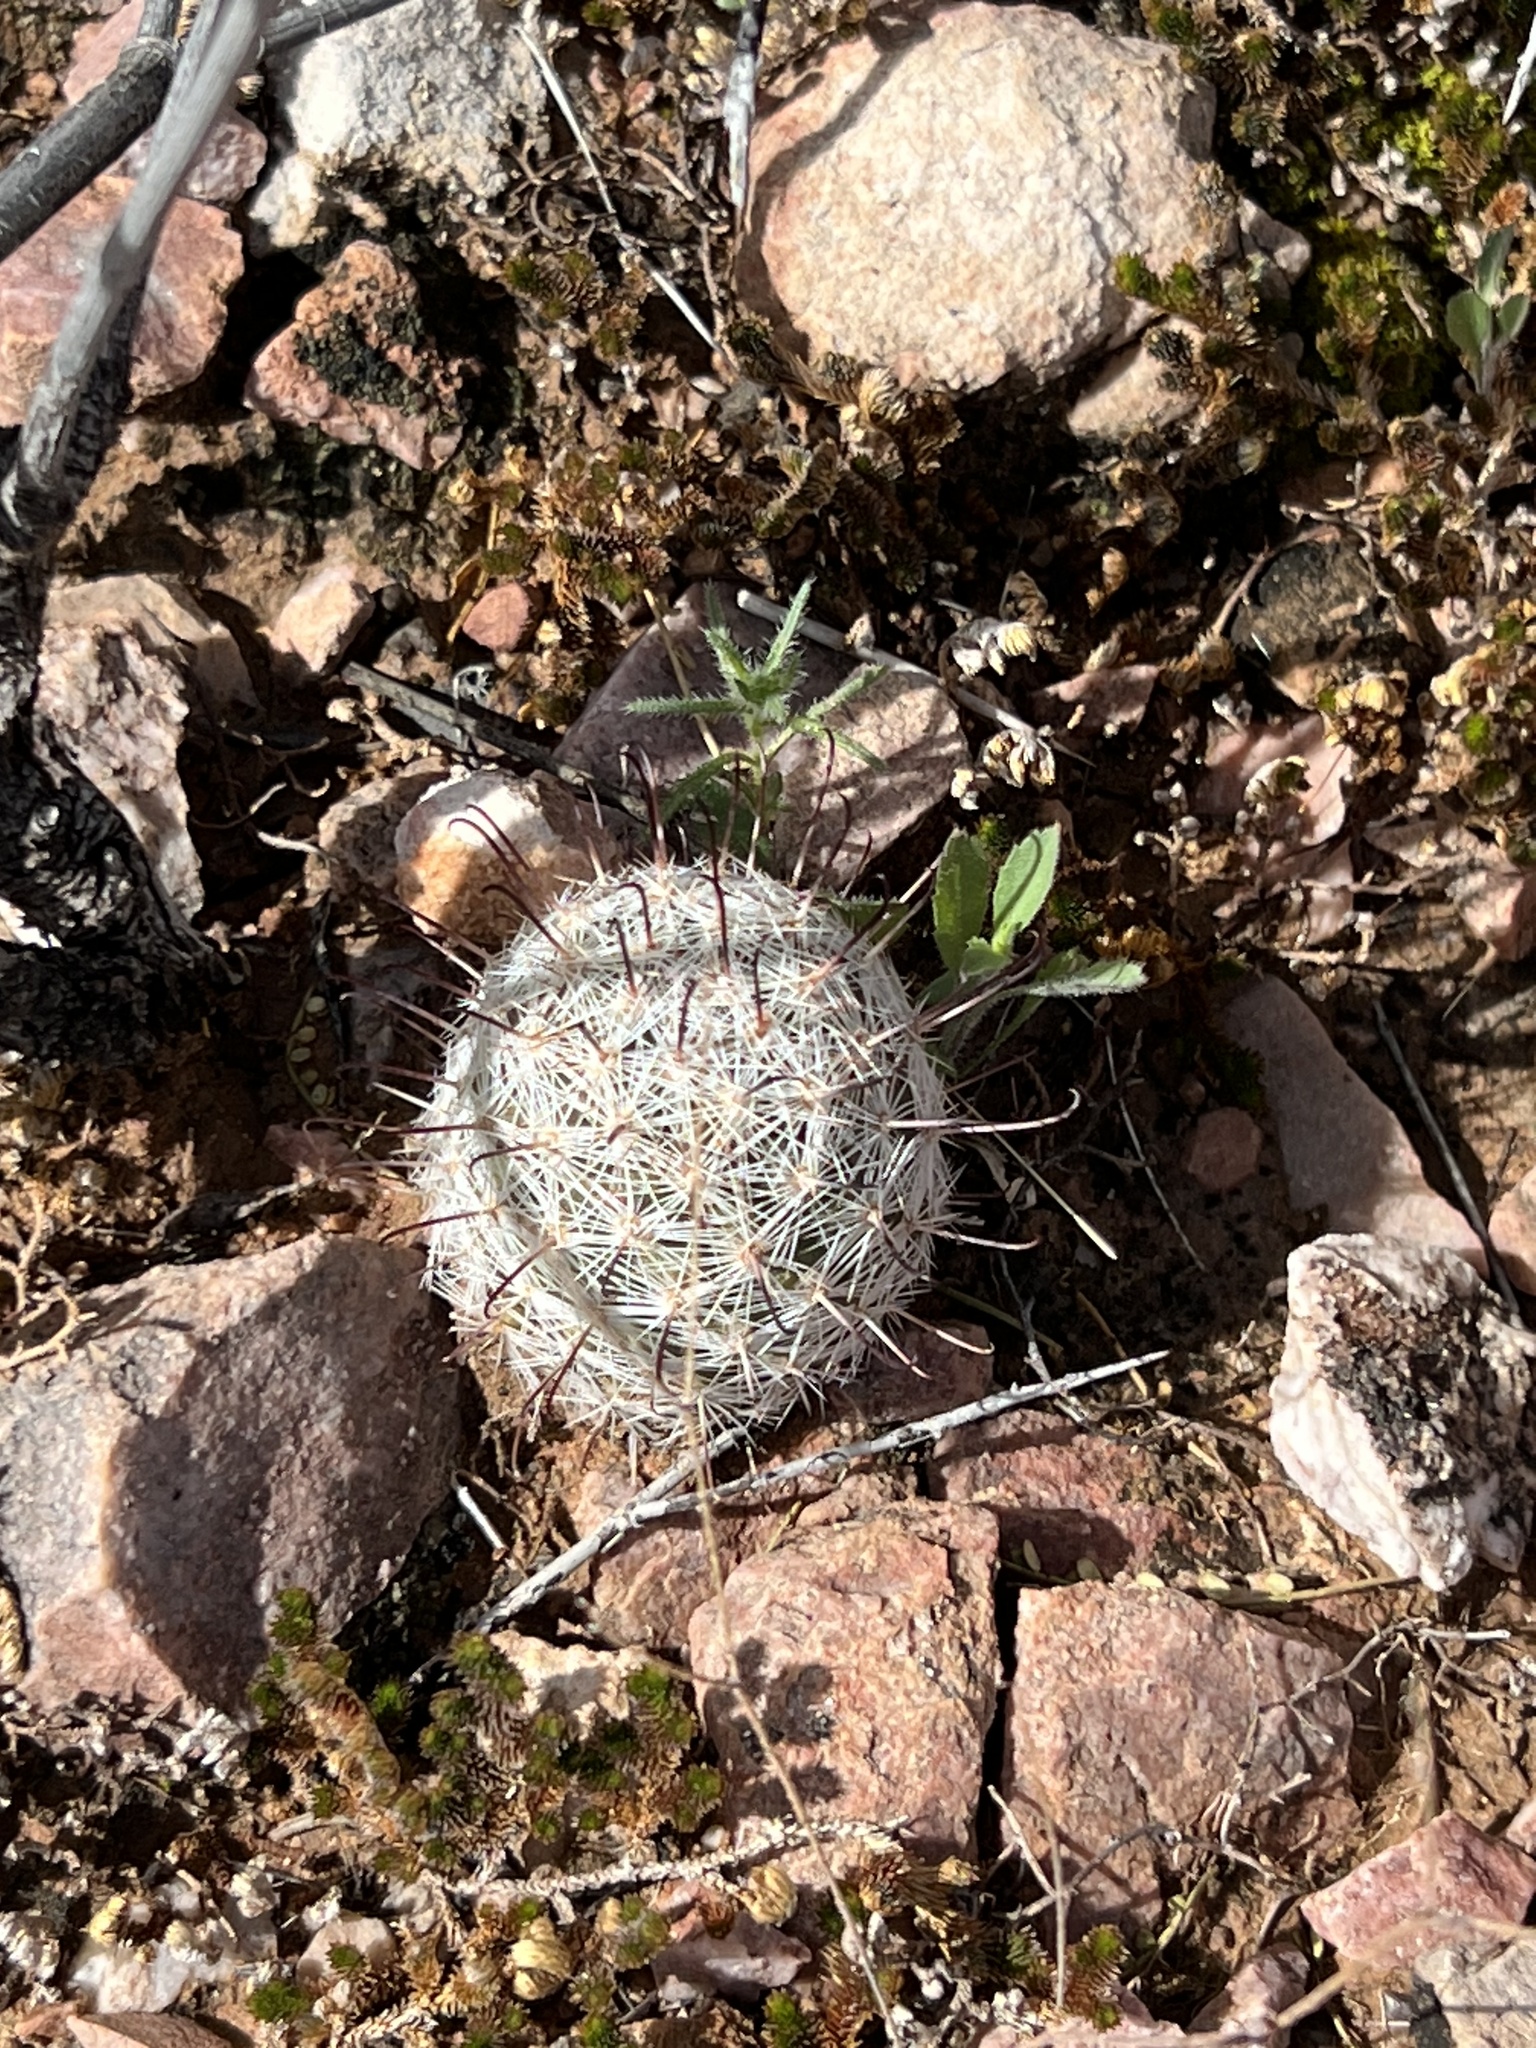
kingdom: Plantae
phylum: Tracheophyta
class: Magnoliopsida
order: Caryophyllales
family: Cactaceae
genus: Cochemiea
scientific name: Cochemiea grahamii
